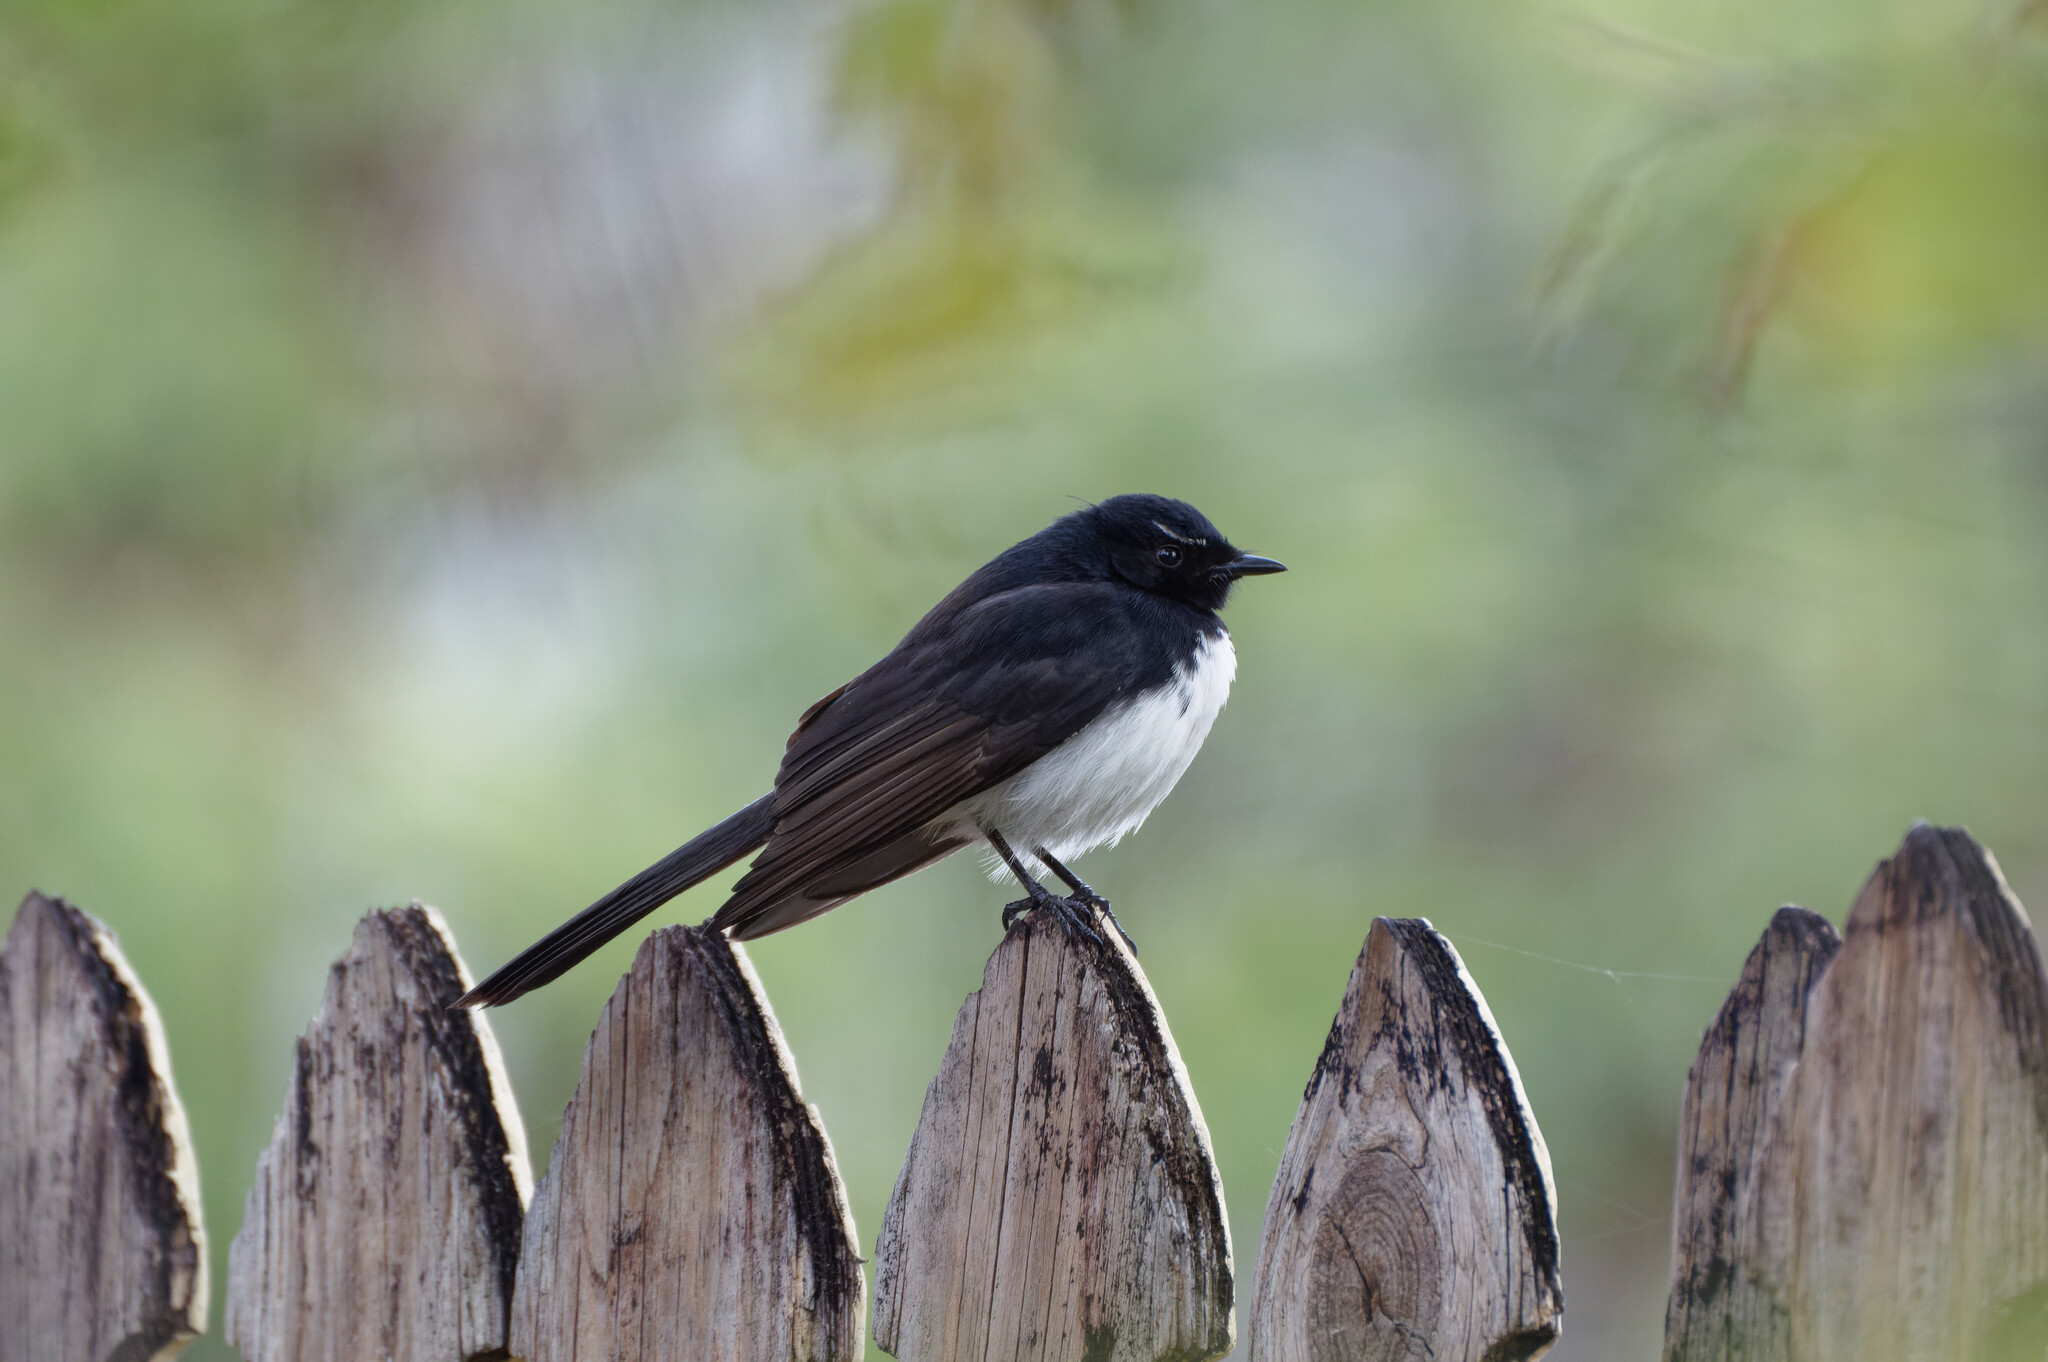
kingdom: Animalia
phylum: Chordata
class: Aves
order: Passeriformes
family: Rhipiduridae
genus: Rhipidura
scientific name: Rhipidura leucophrys
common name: Willie wagtail
